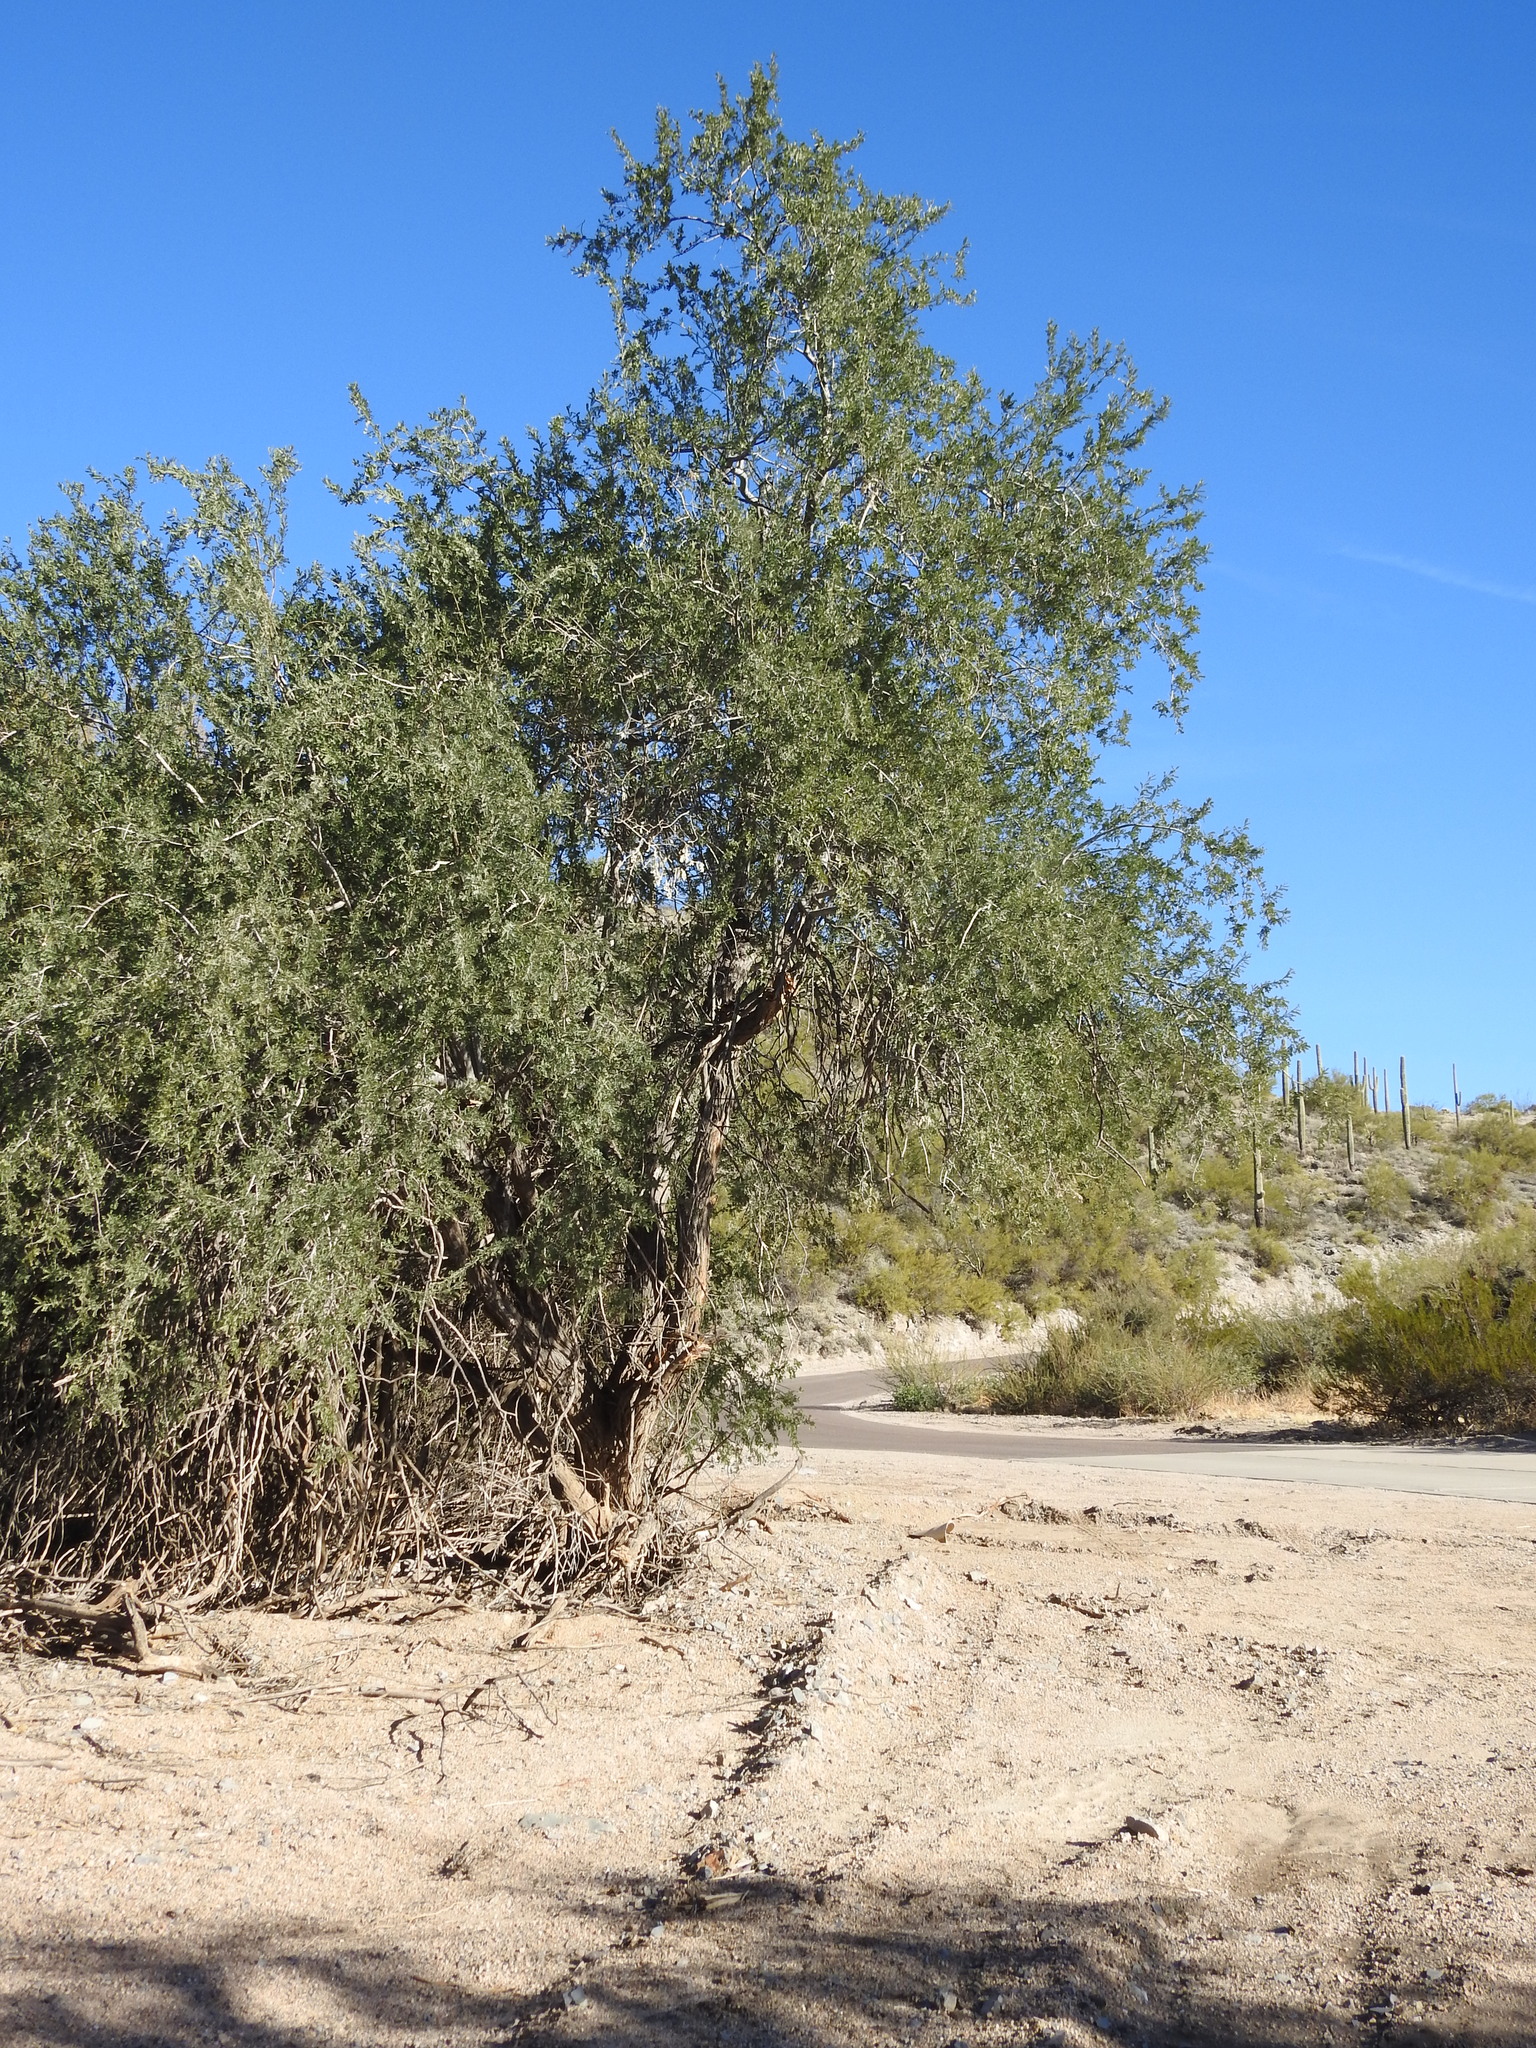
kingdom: Plantae
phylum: Tracheophyta
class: Magnoliopsida
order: Fabales
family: Fabaceae
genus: Olneya
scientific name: Olneya tesota
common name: Desert ironwood
